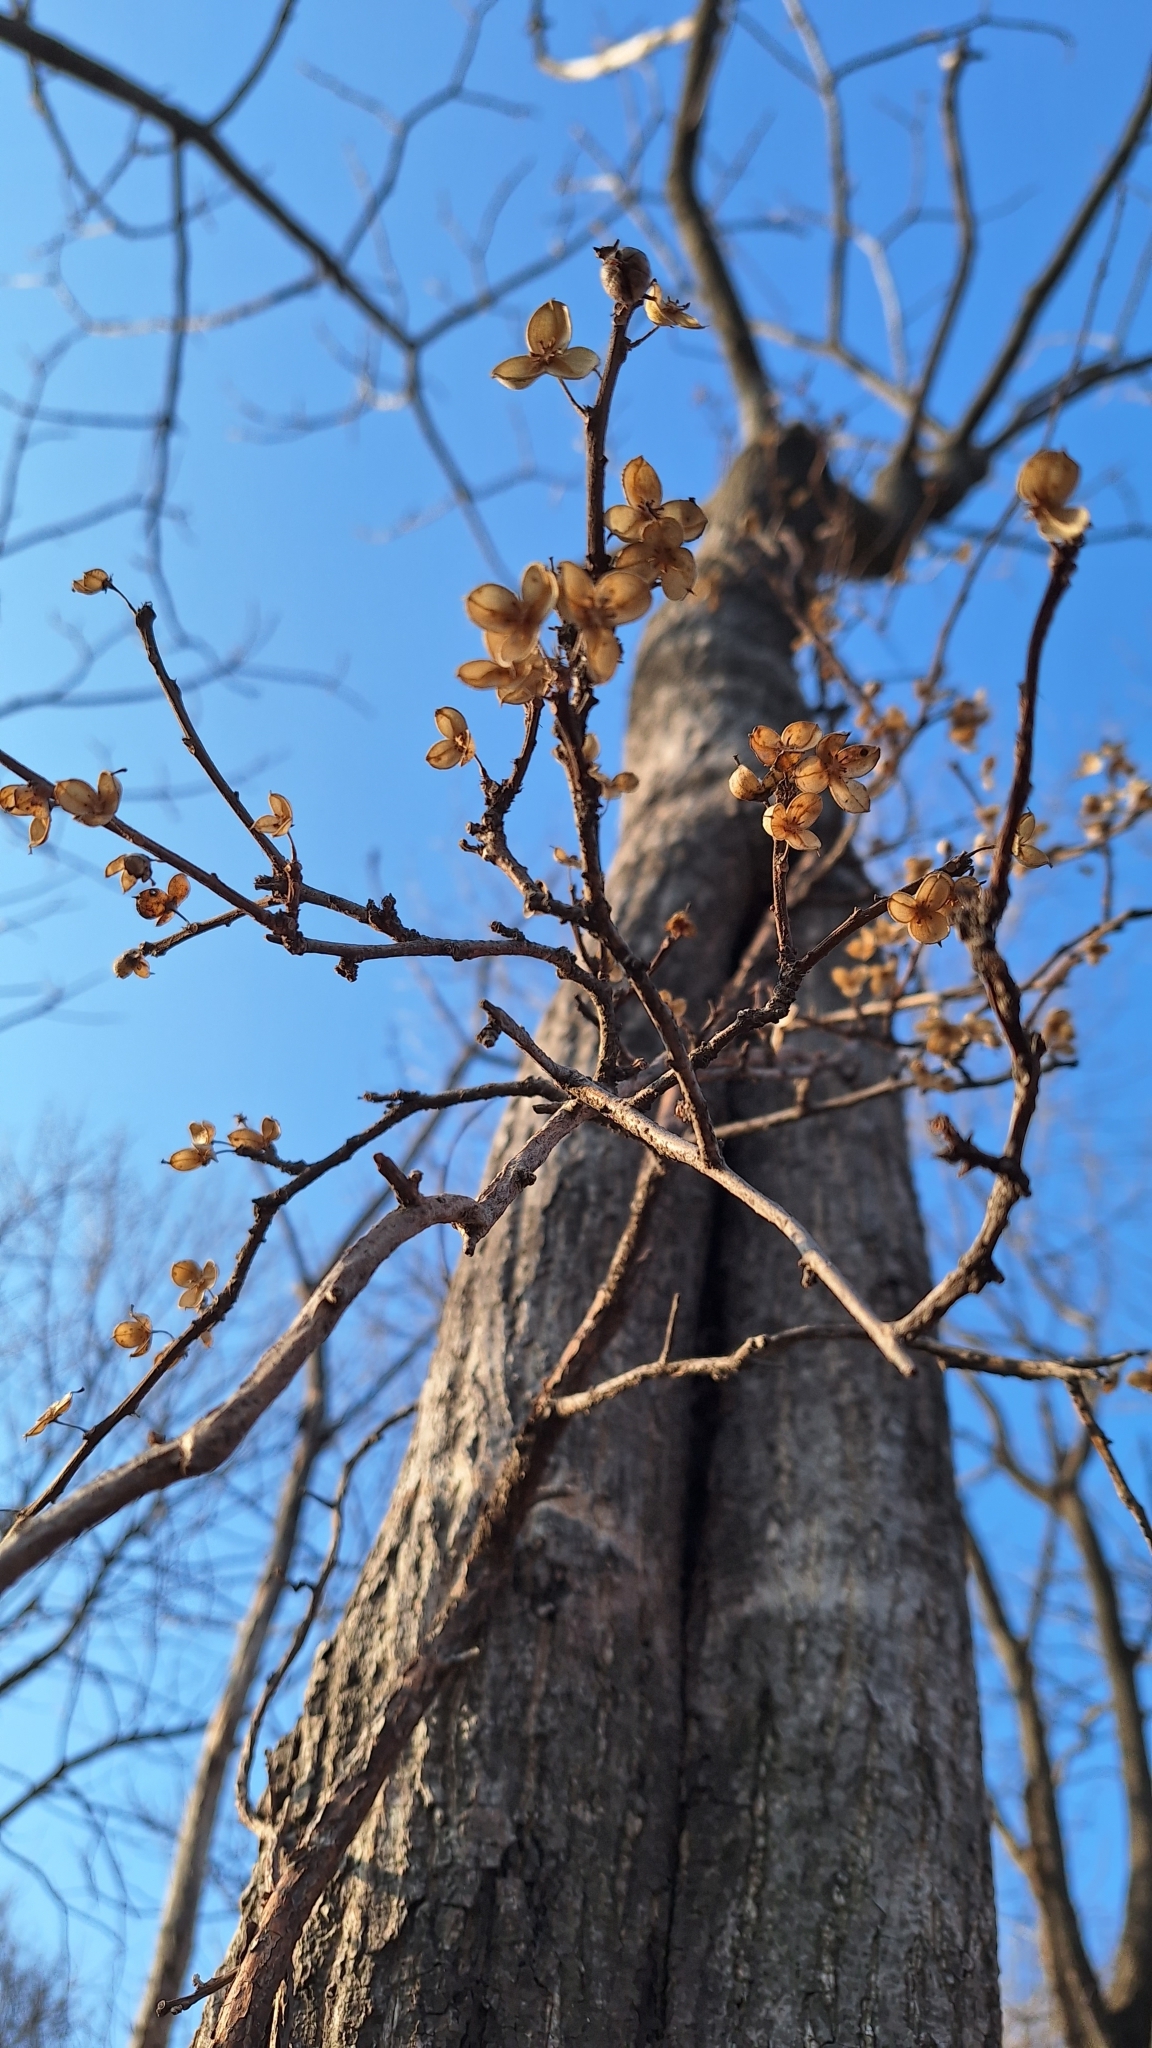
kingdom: Plantae
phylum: Tracheophyta
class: Magnoliopsida
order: Celastrales
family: Celastraceae
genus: Celastrus
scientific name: Celastrus flagellaris
